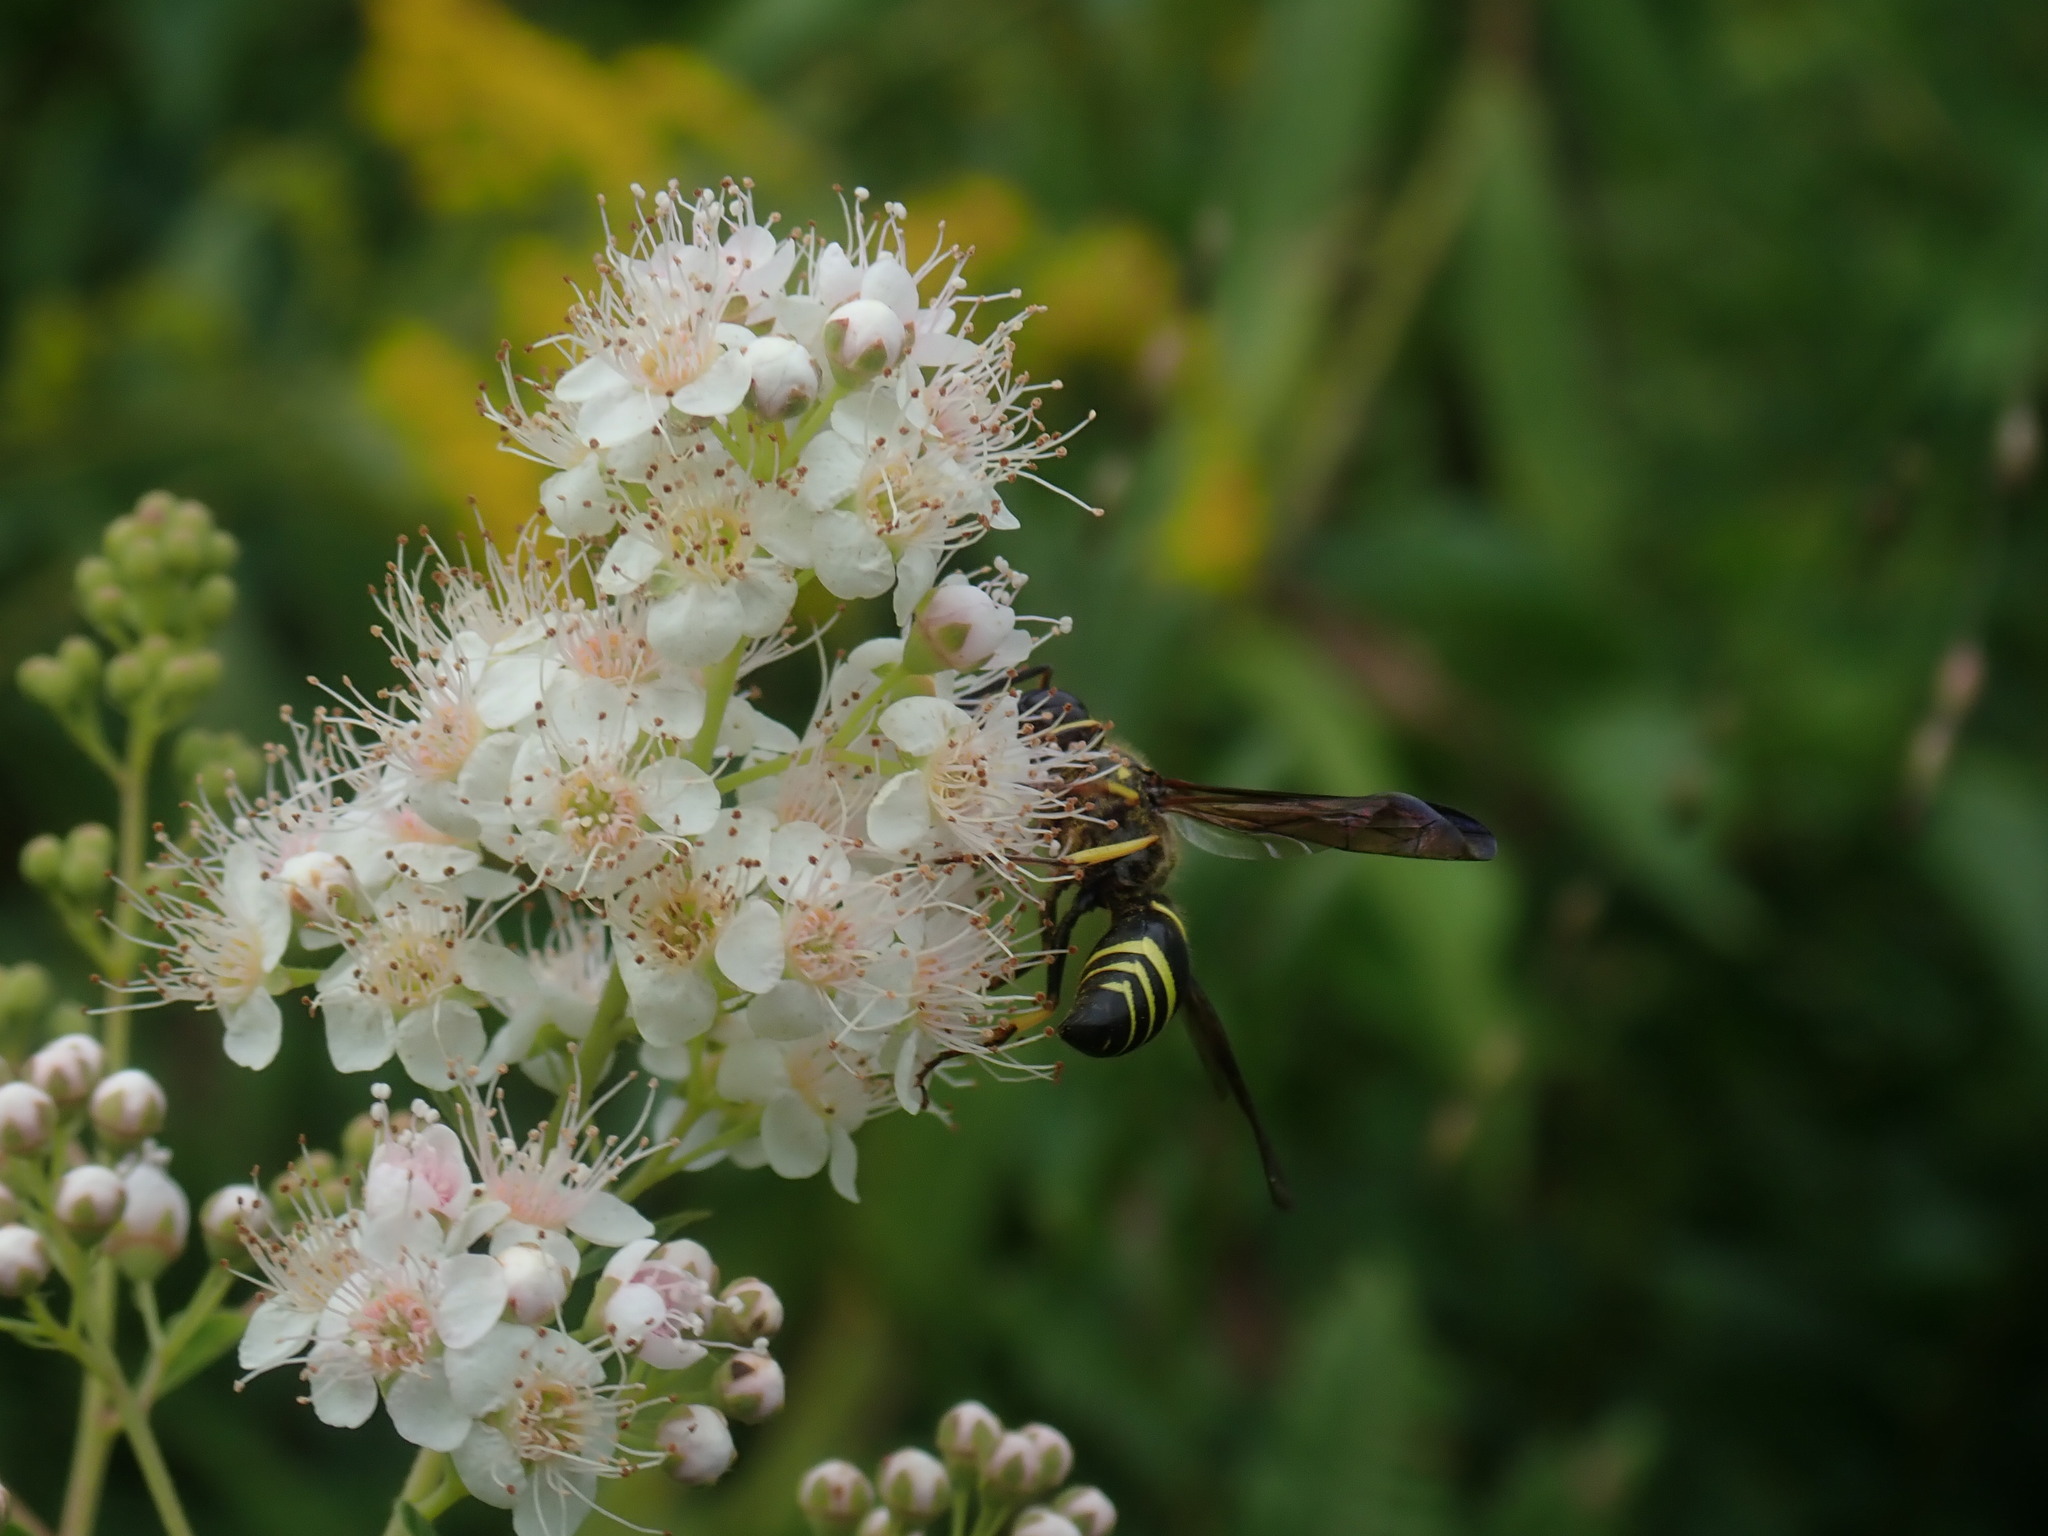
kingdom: Animalia
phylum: Arthropoda
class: Insecta
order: Hymenoptera
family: Vespidae
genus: Ancistrocerus
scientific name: Ancistrocerus
